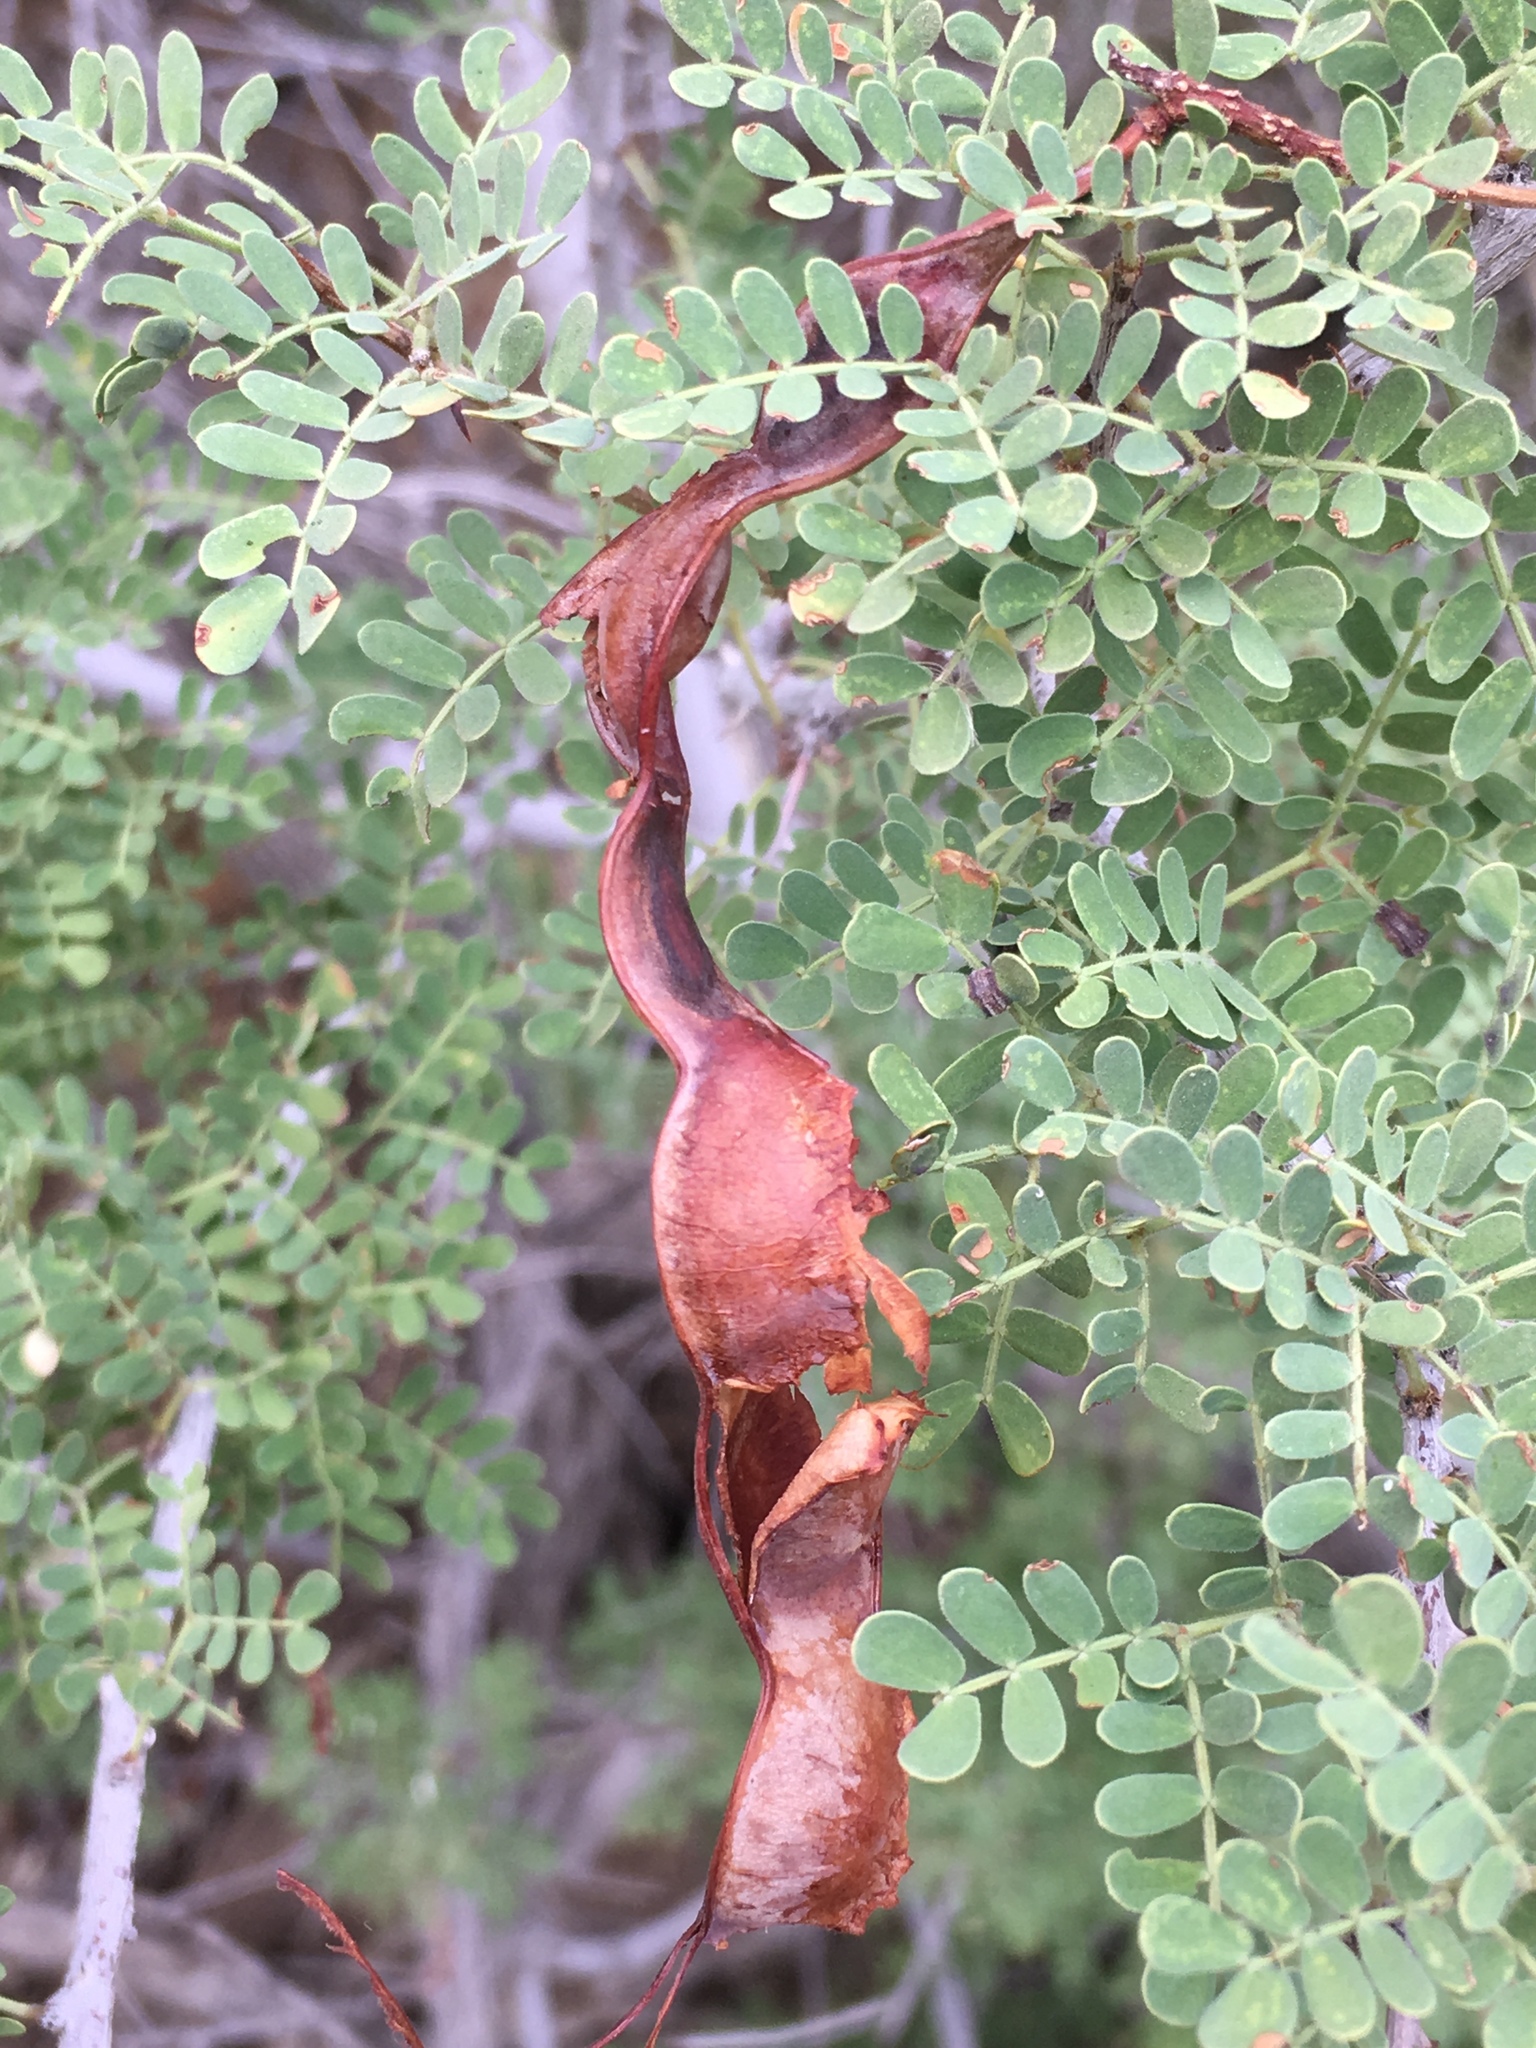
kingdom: Plantae
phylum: Tracheophyta
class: Magnoliopsida
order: Fabales
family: Fabaceae
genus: Senegalia
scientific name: Senegalia greggii
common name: Texas-mimosa
